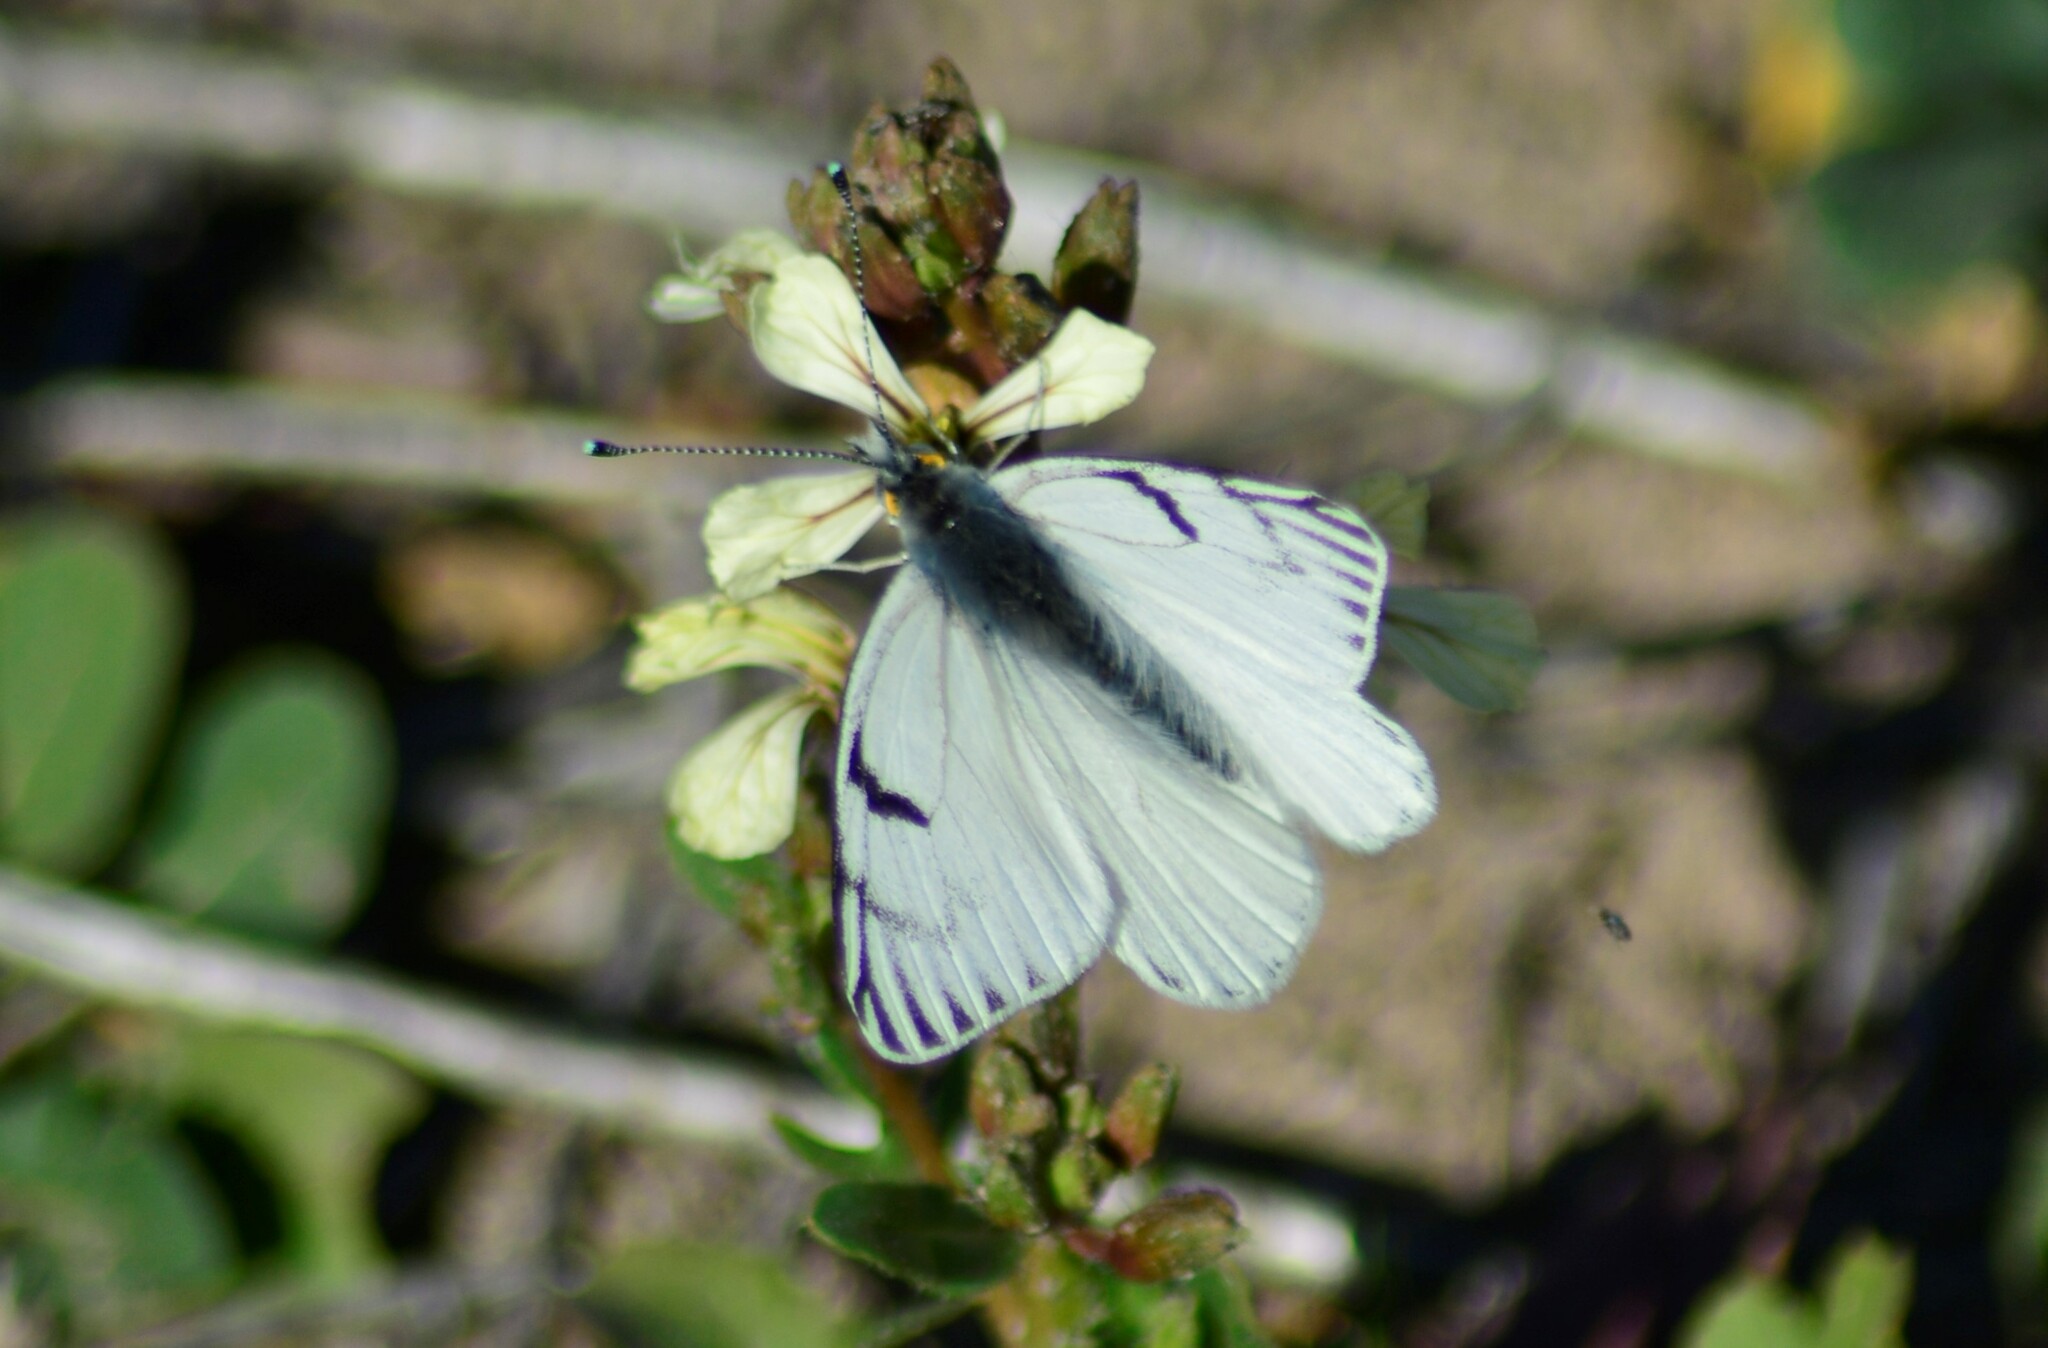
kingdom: Animalia
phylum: Arthropoda
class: Insecta
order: Lepidoptera
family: Pieridae
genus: Tatochila
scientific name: Tatochila mercedis
